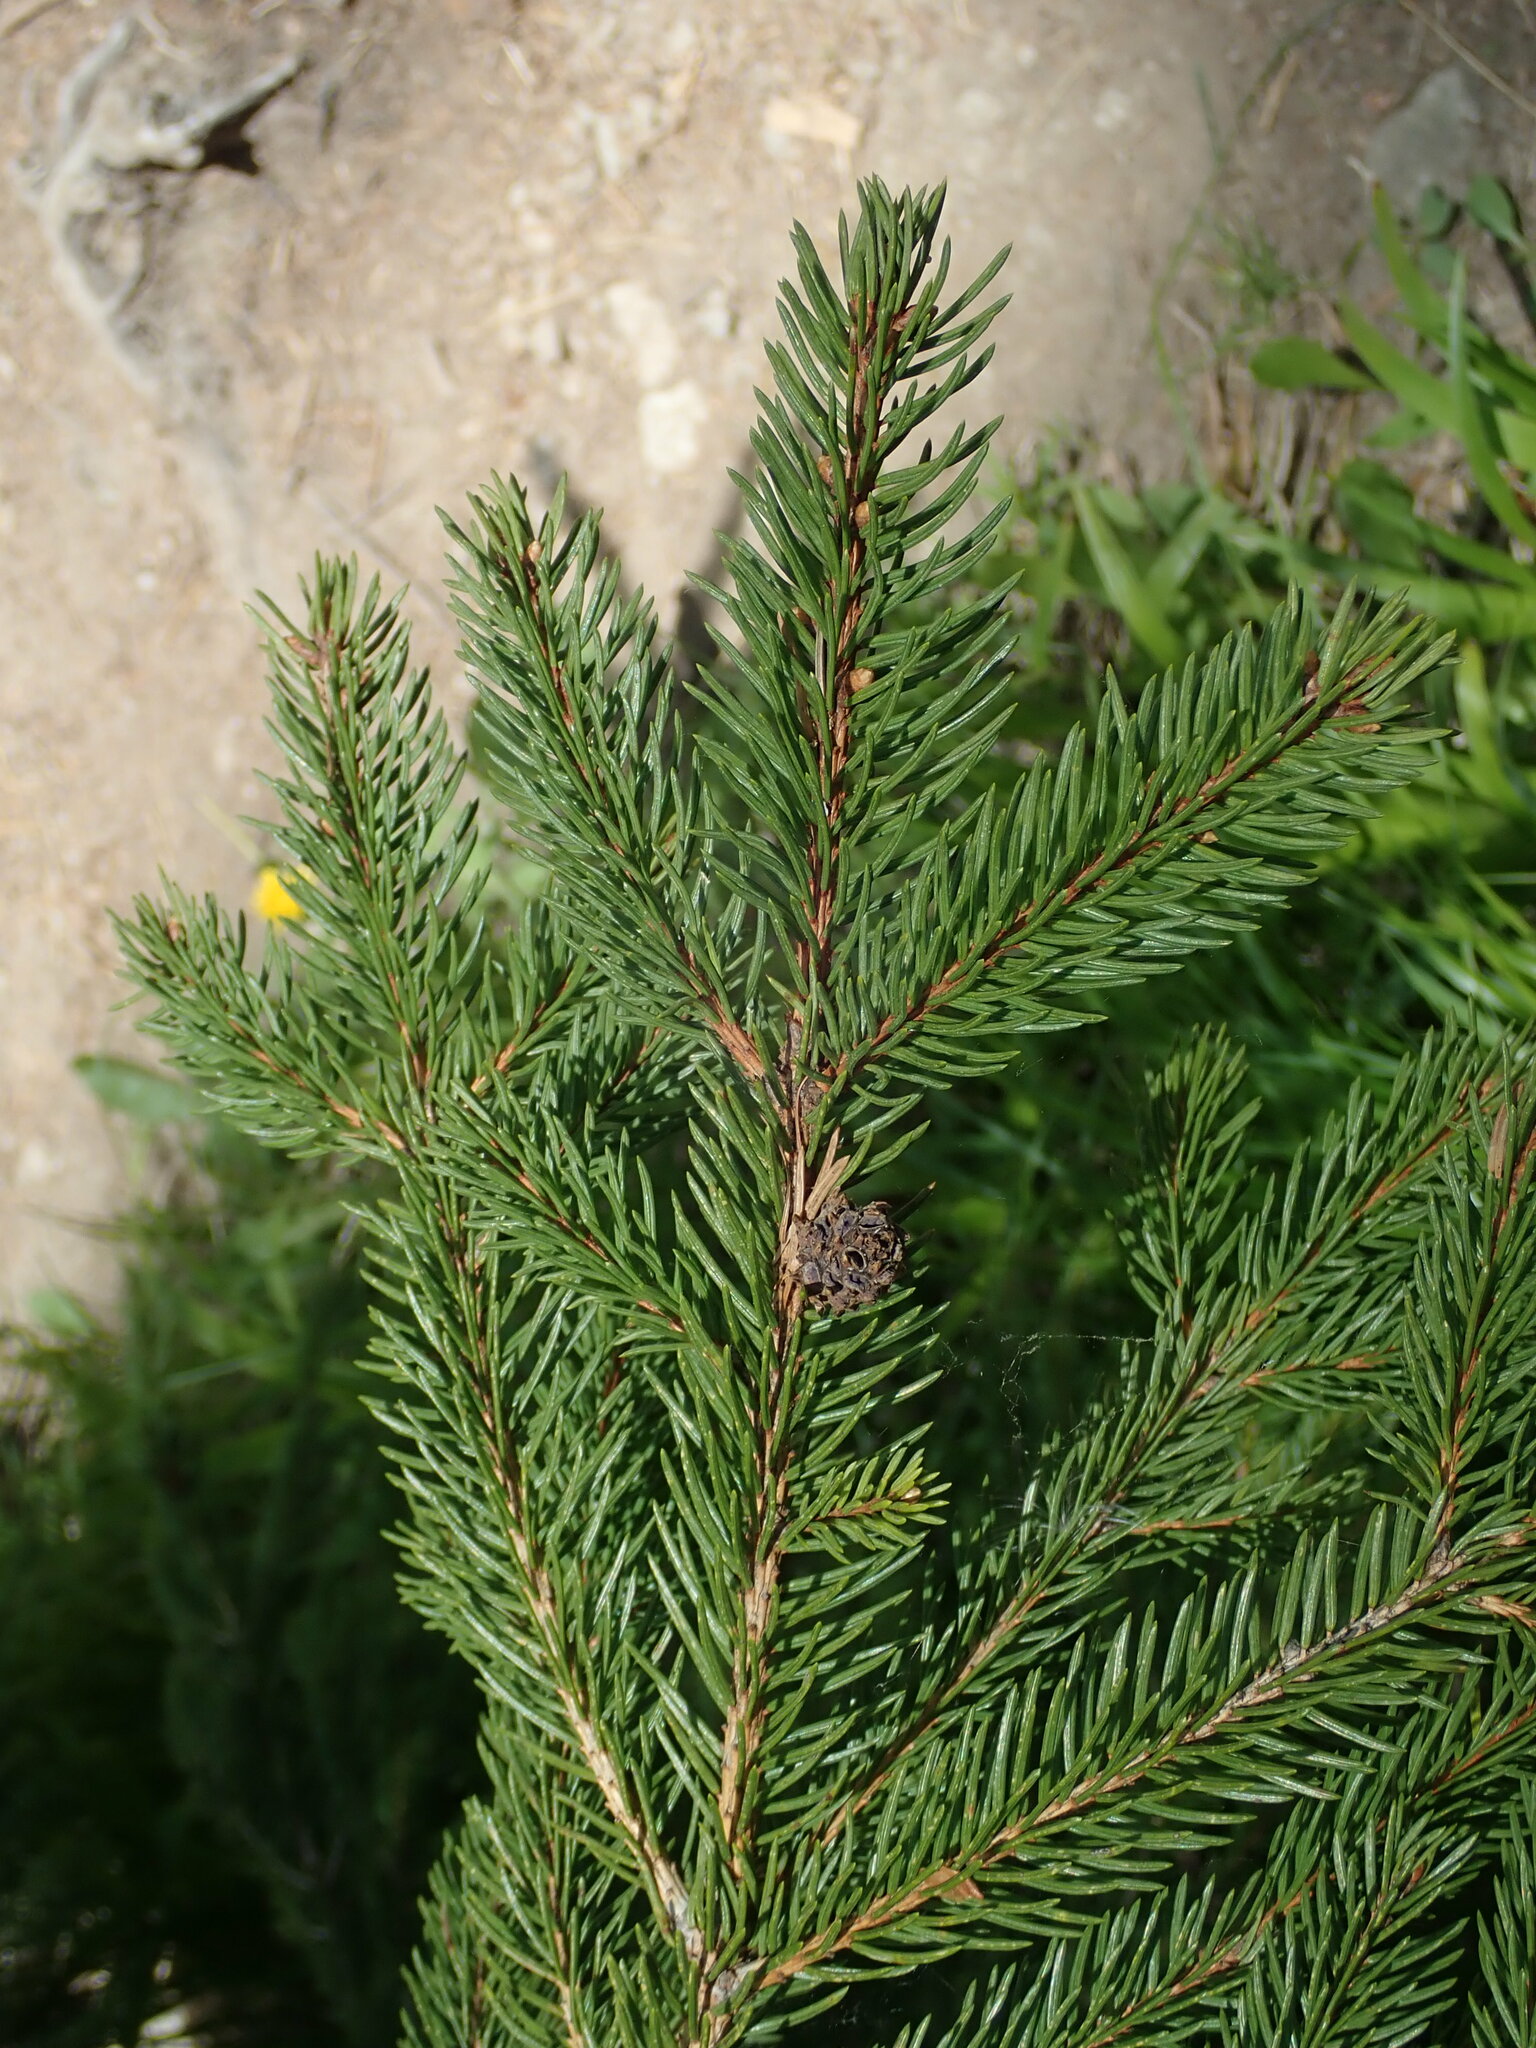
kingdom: Plantae
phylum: Tracheophyta
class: Pinopsida
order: Pinales
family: Pinaceae
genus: Picea
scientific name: Picea abies
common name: Norway spruce
